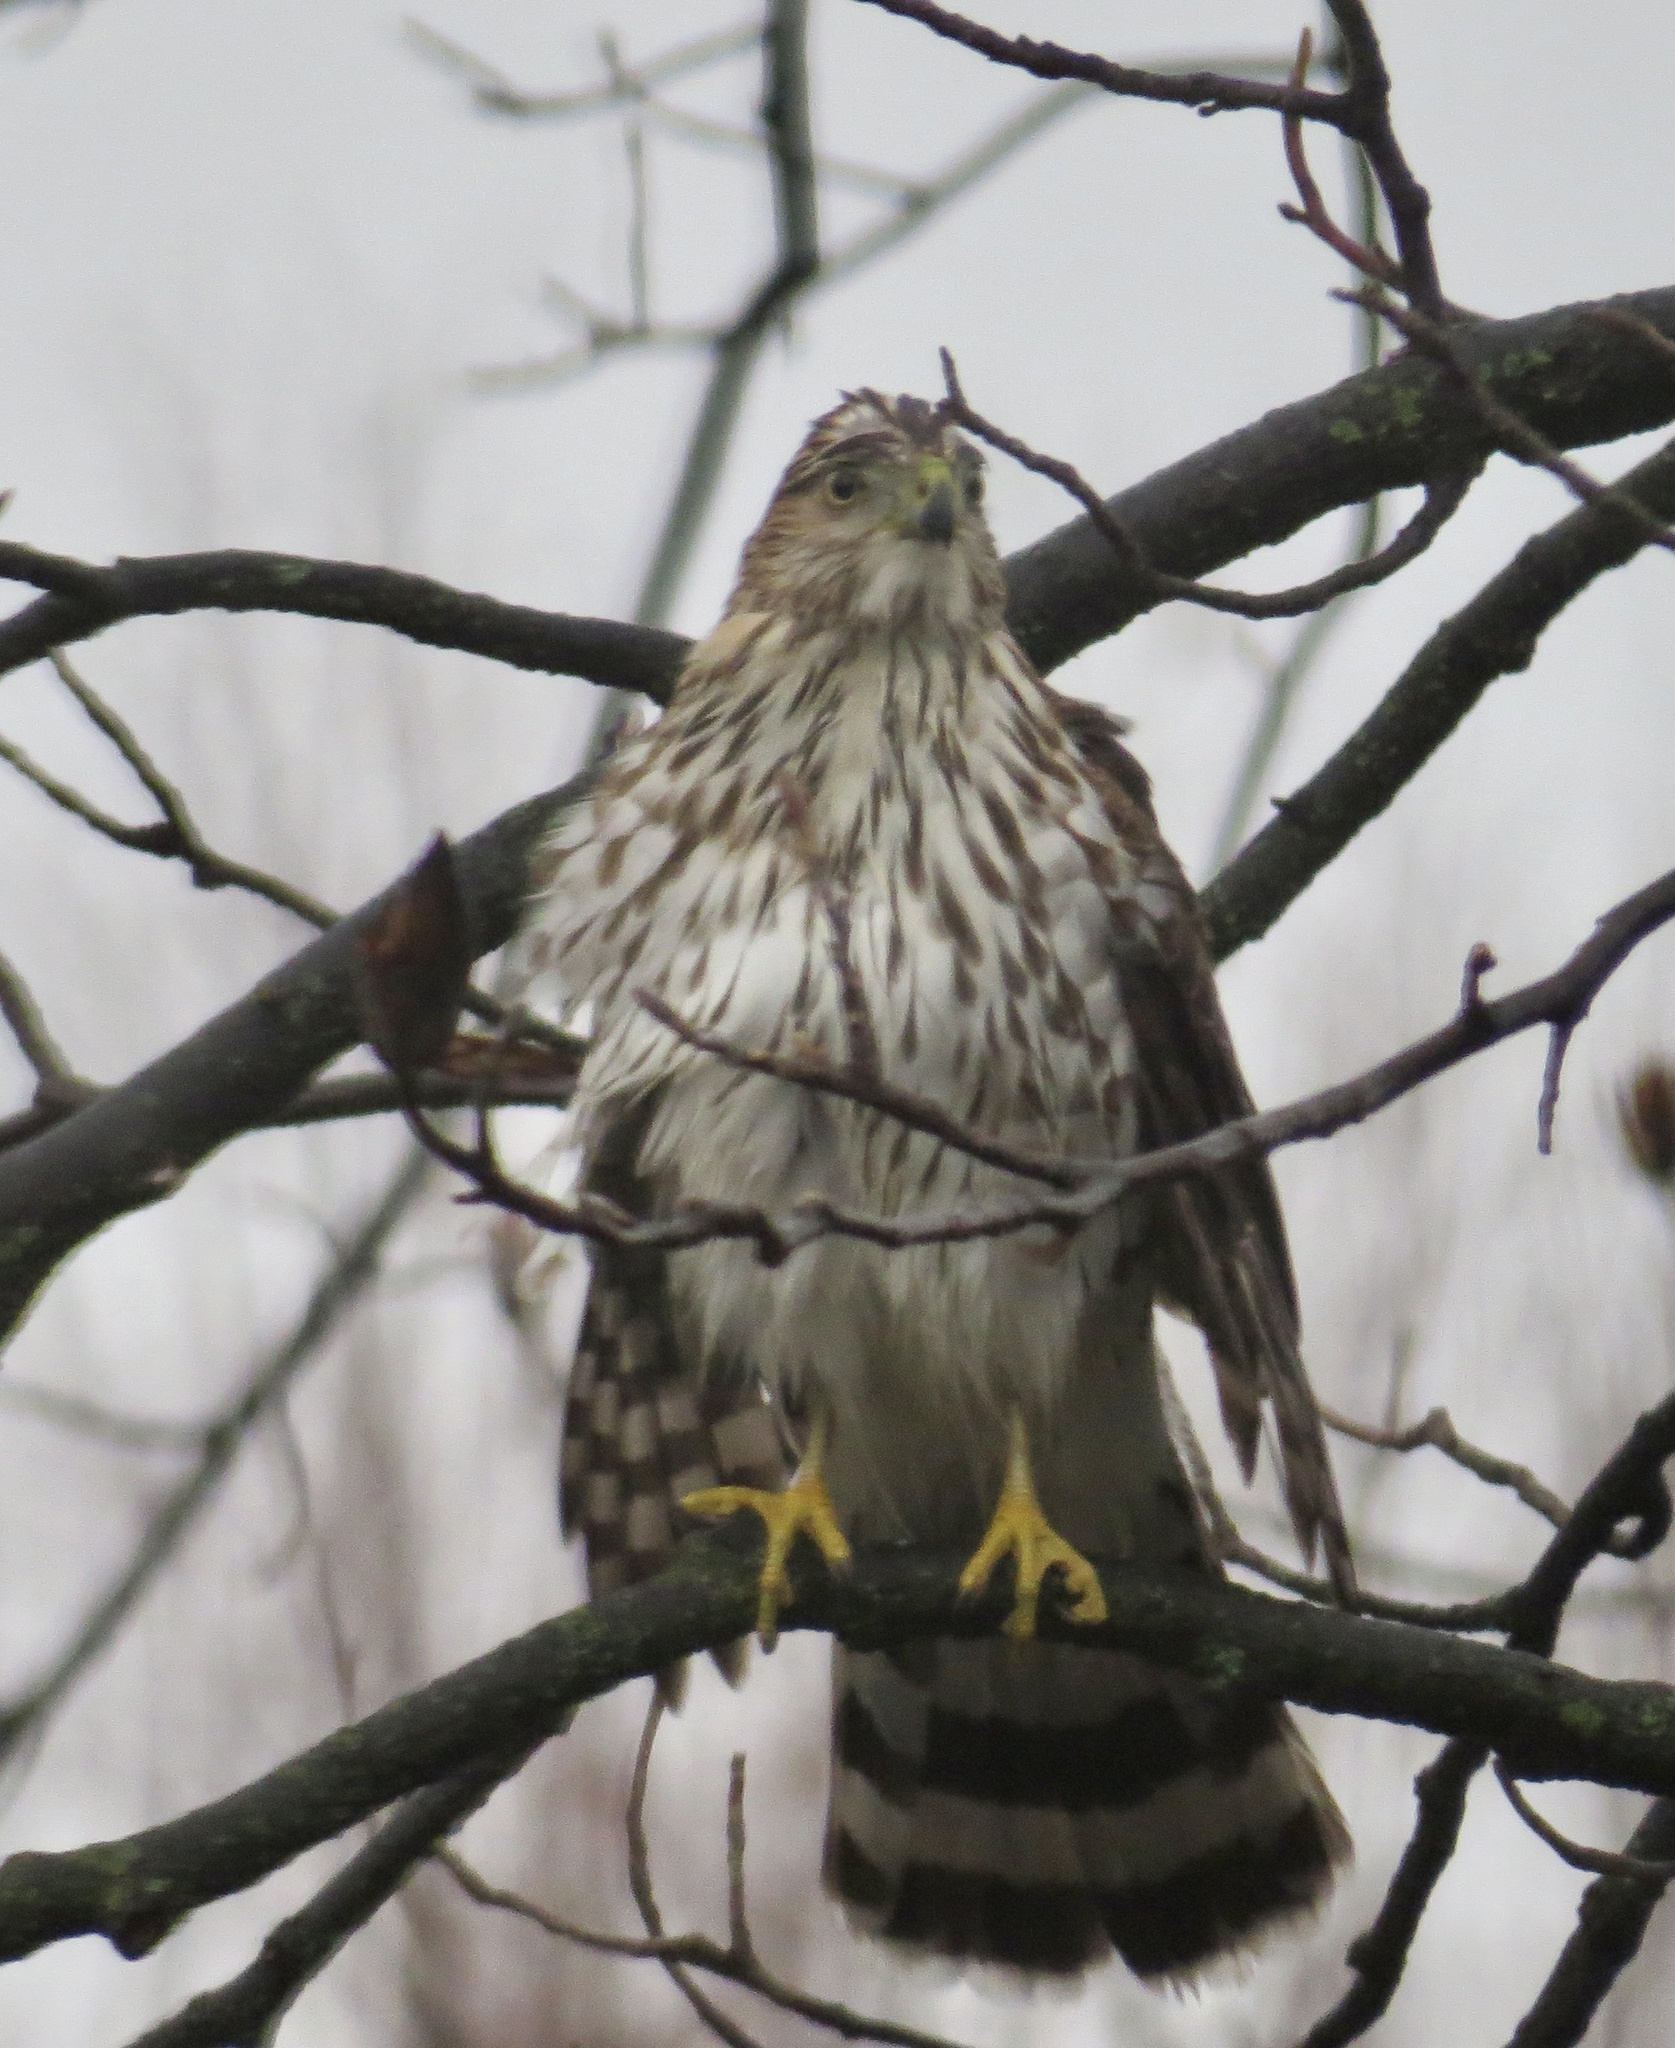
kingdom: Animalia
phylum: Chordata
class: Aves
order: Accipitriformes
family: Accipitridae
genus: Accipiter
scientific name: Accipiter cooperii
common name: Cooper's hawk
